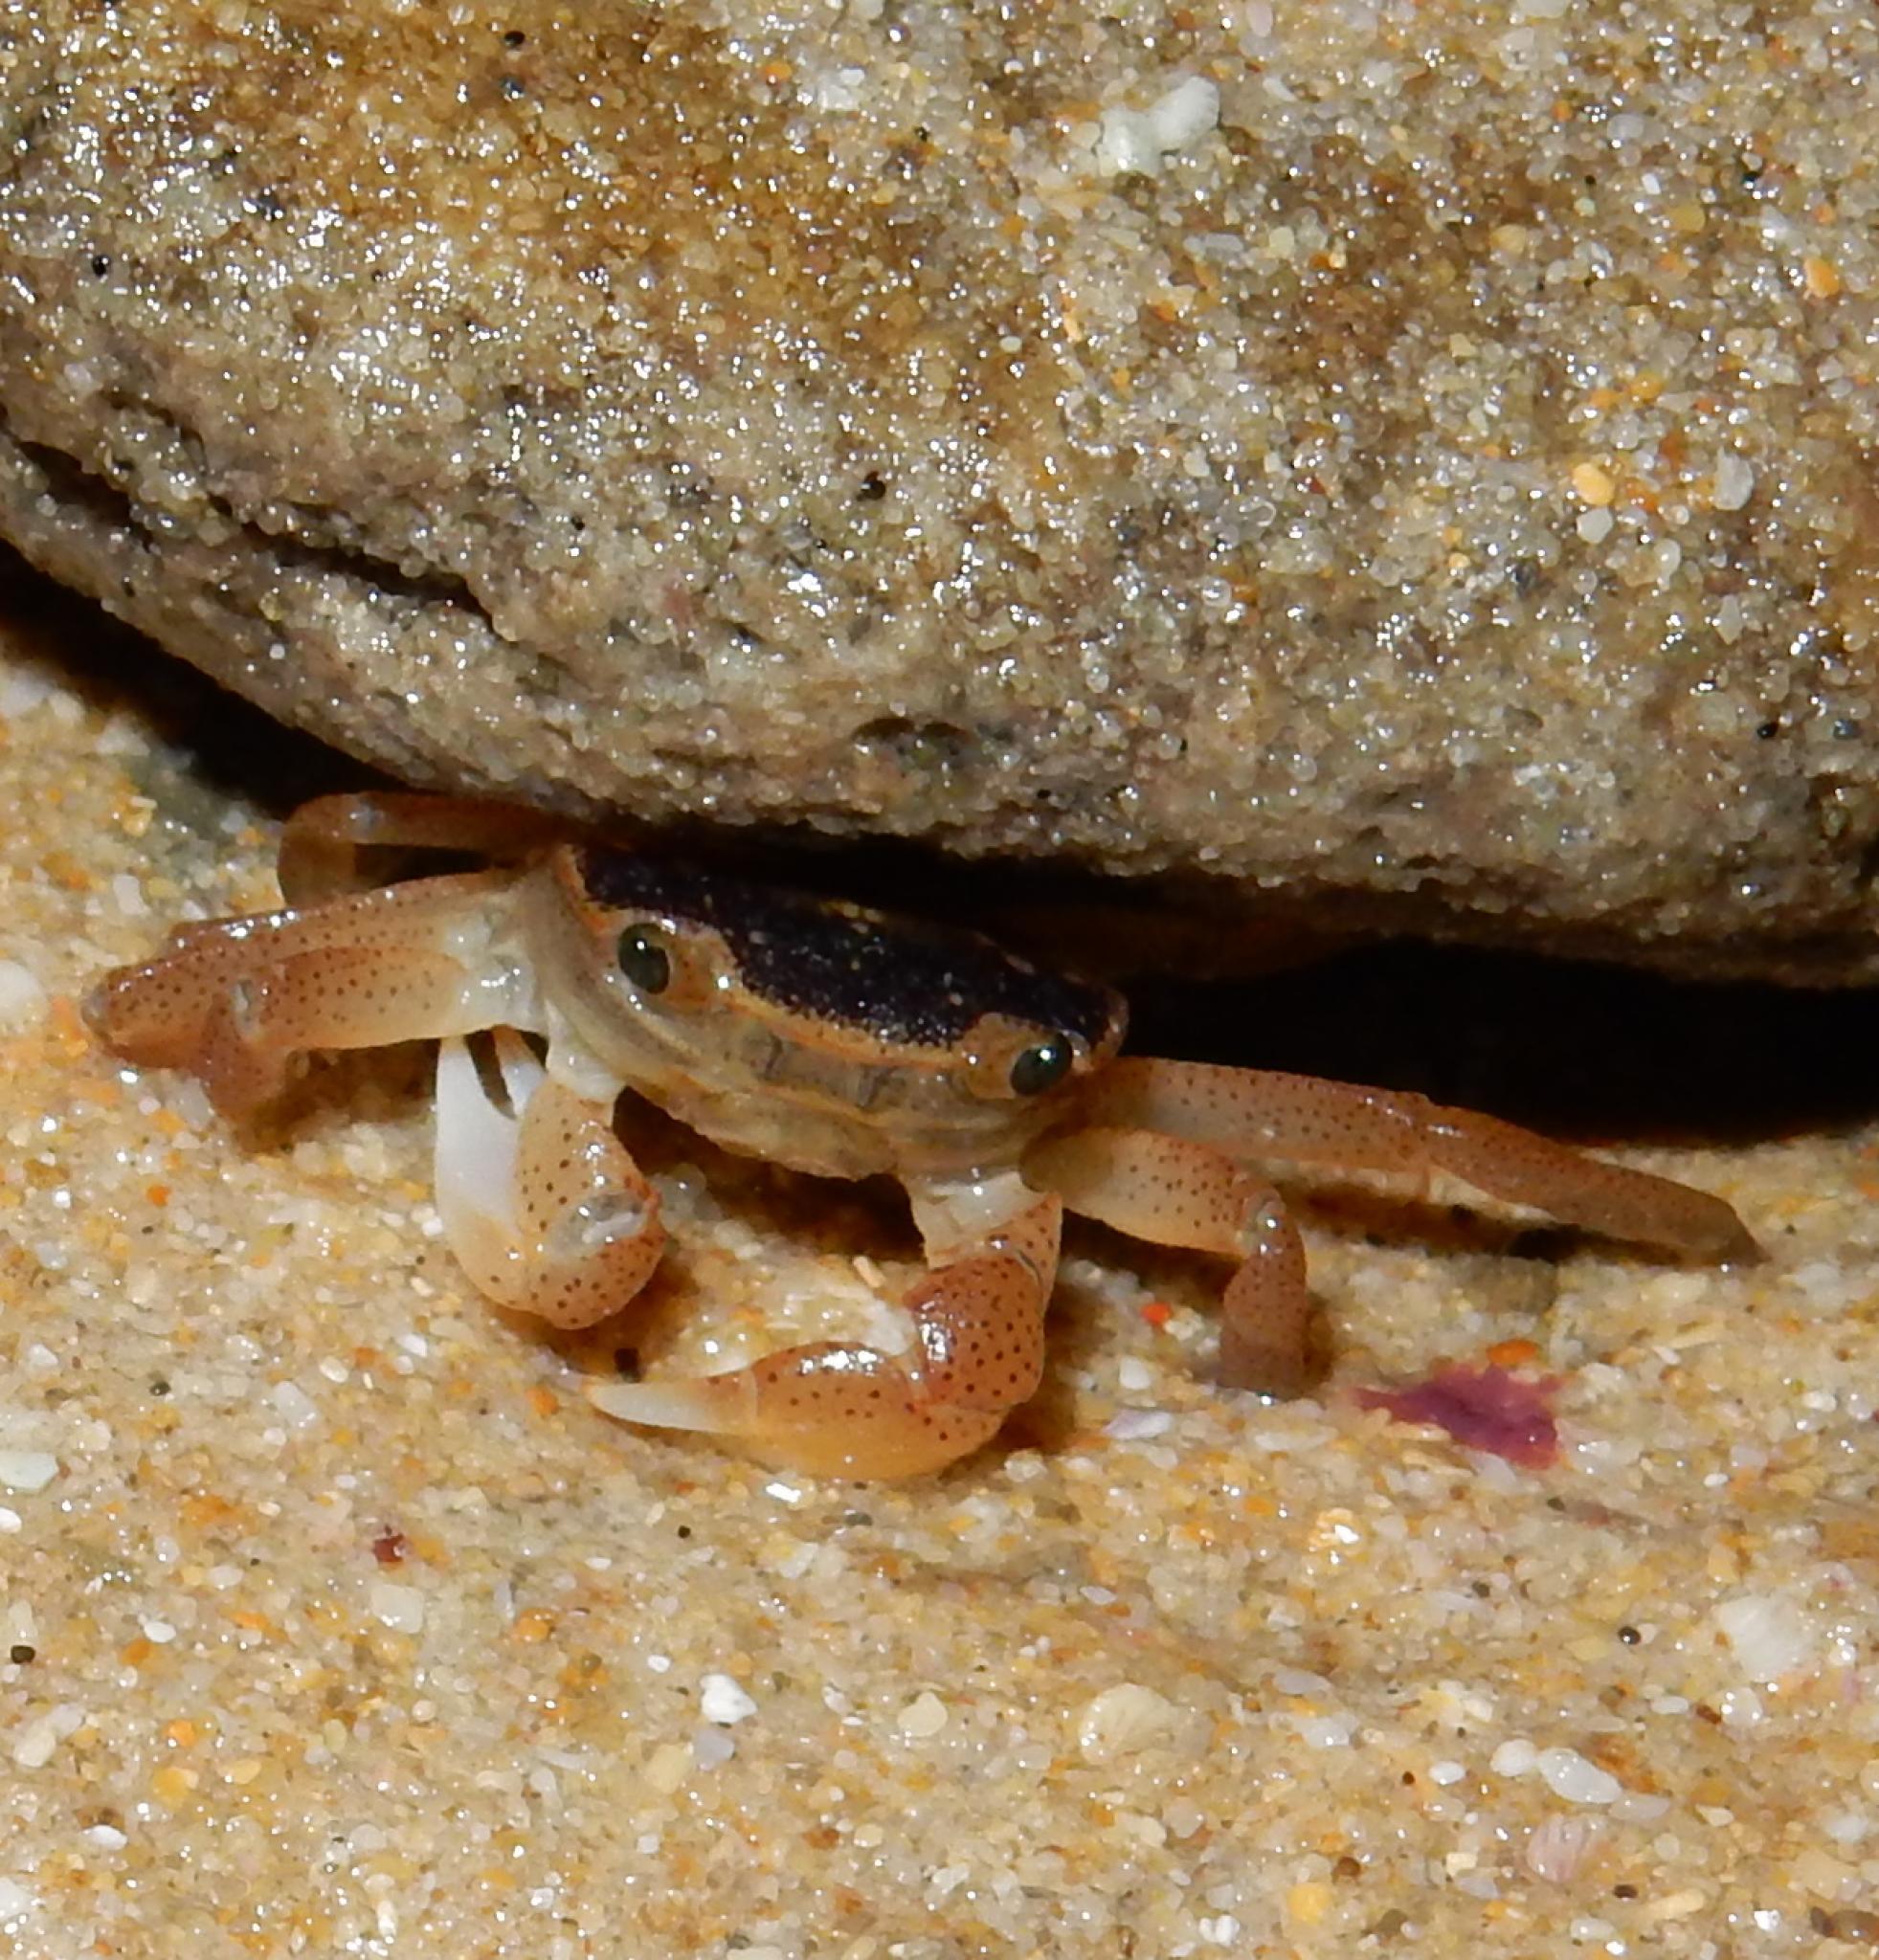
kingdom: Animalia
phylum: Arthropoda
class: Malacostraca
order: Decapoda
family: Varunidae
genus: Cyclograpsus
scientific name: Cyclograpsus punctatus
